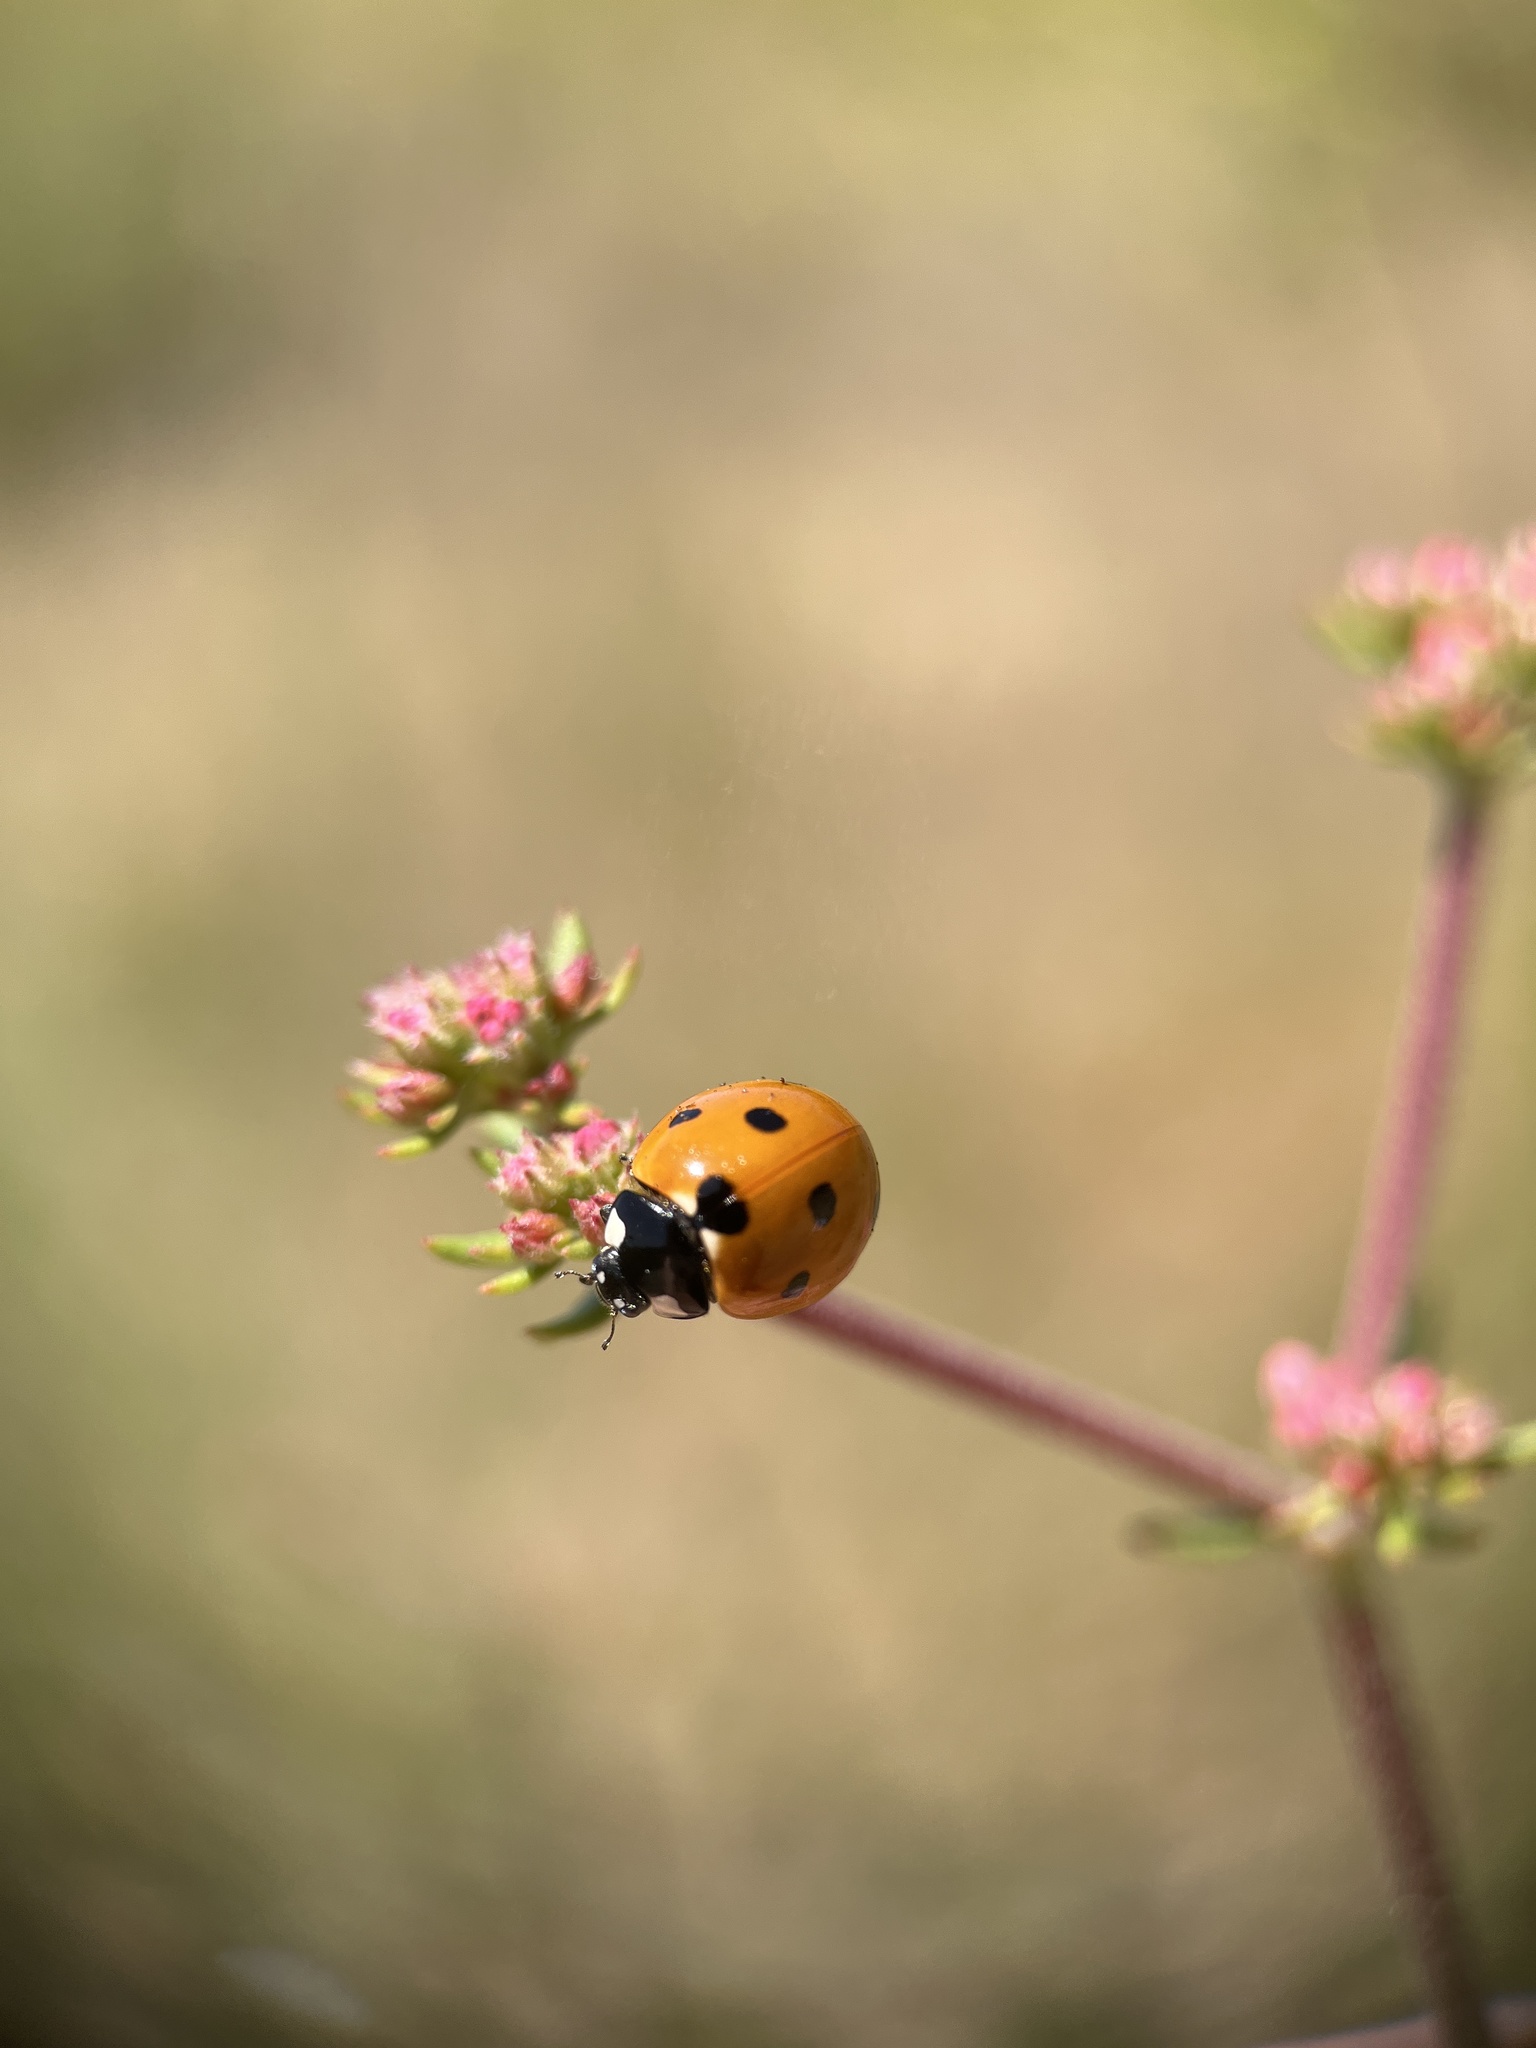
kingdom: Animalia
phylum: Arthropoda
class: Insecta
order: Coleoptera
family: Coccinellidae
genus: Coccinella
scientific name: Coccinella septempunctata
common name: Sevenspotted lady beetle
